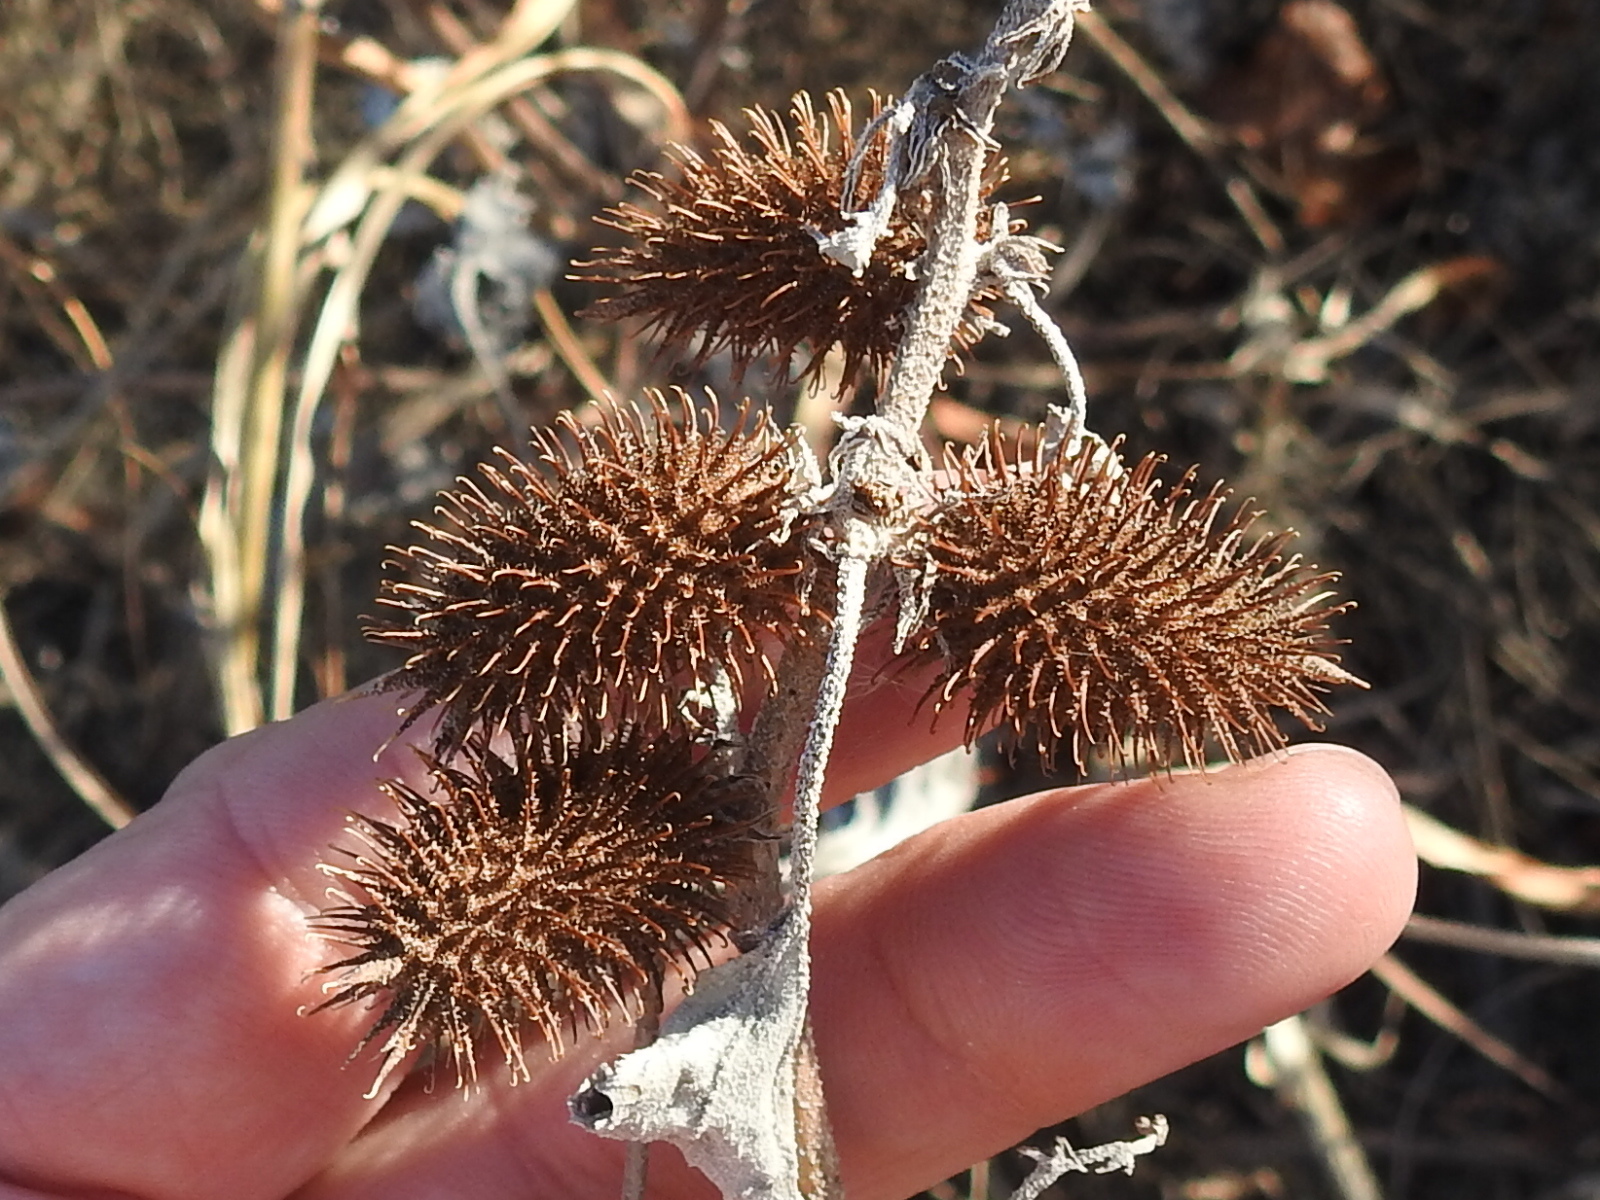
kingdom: Plantae
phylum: Tracheophyta
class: Magnoliopsida
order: Asterales
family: Asteraceae
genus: Xanthium
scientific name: Xanthium strumarium
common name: Rough cocklebur
